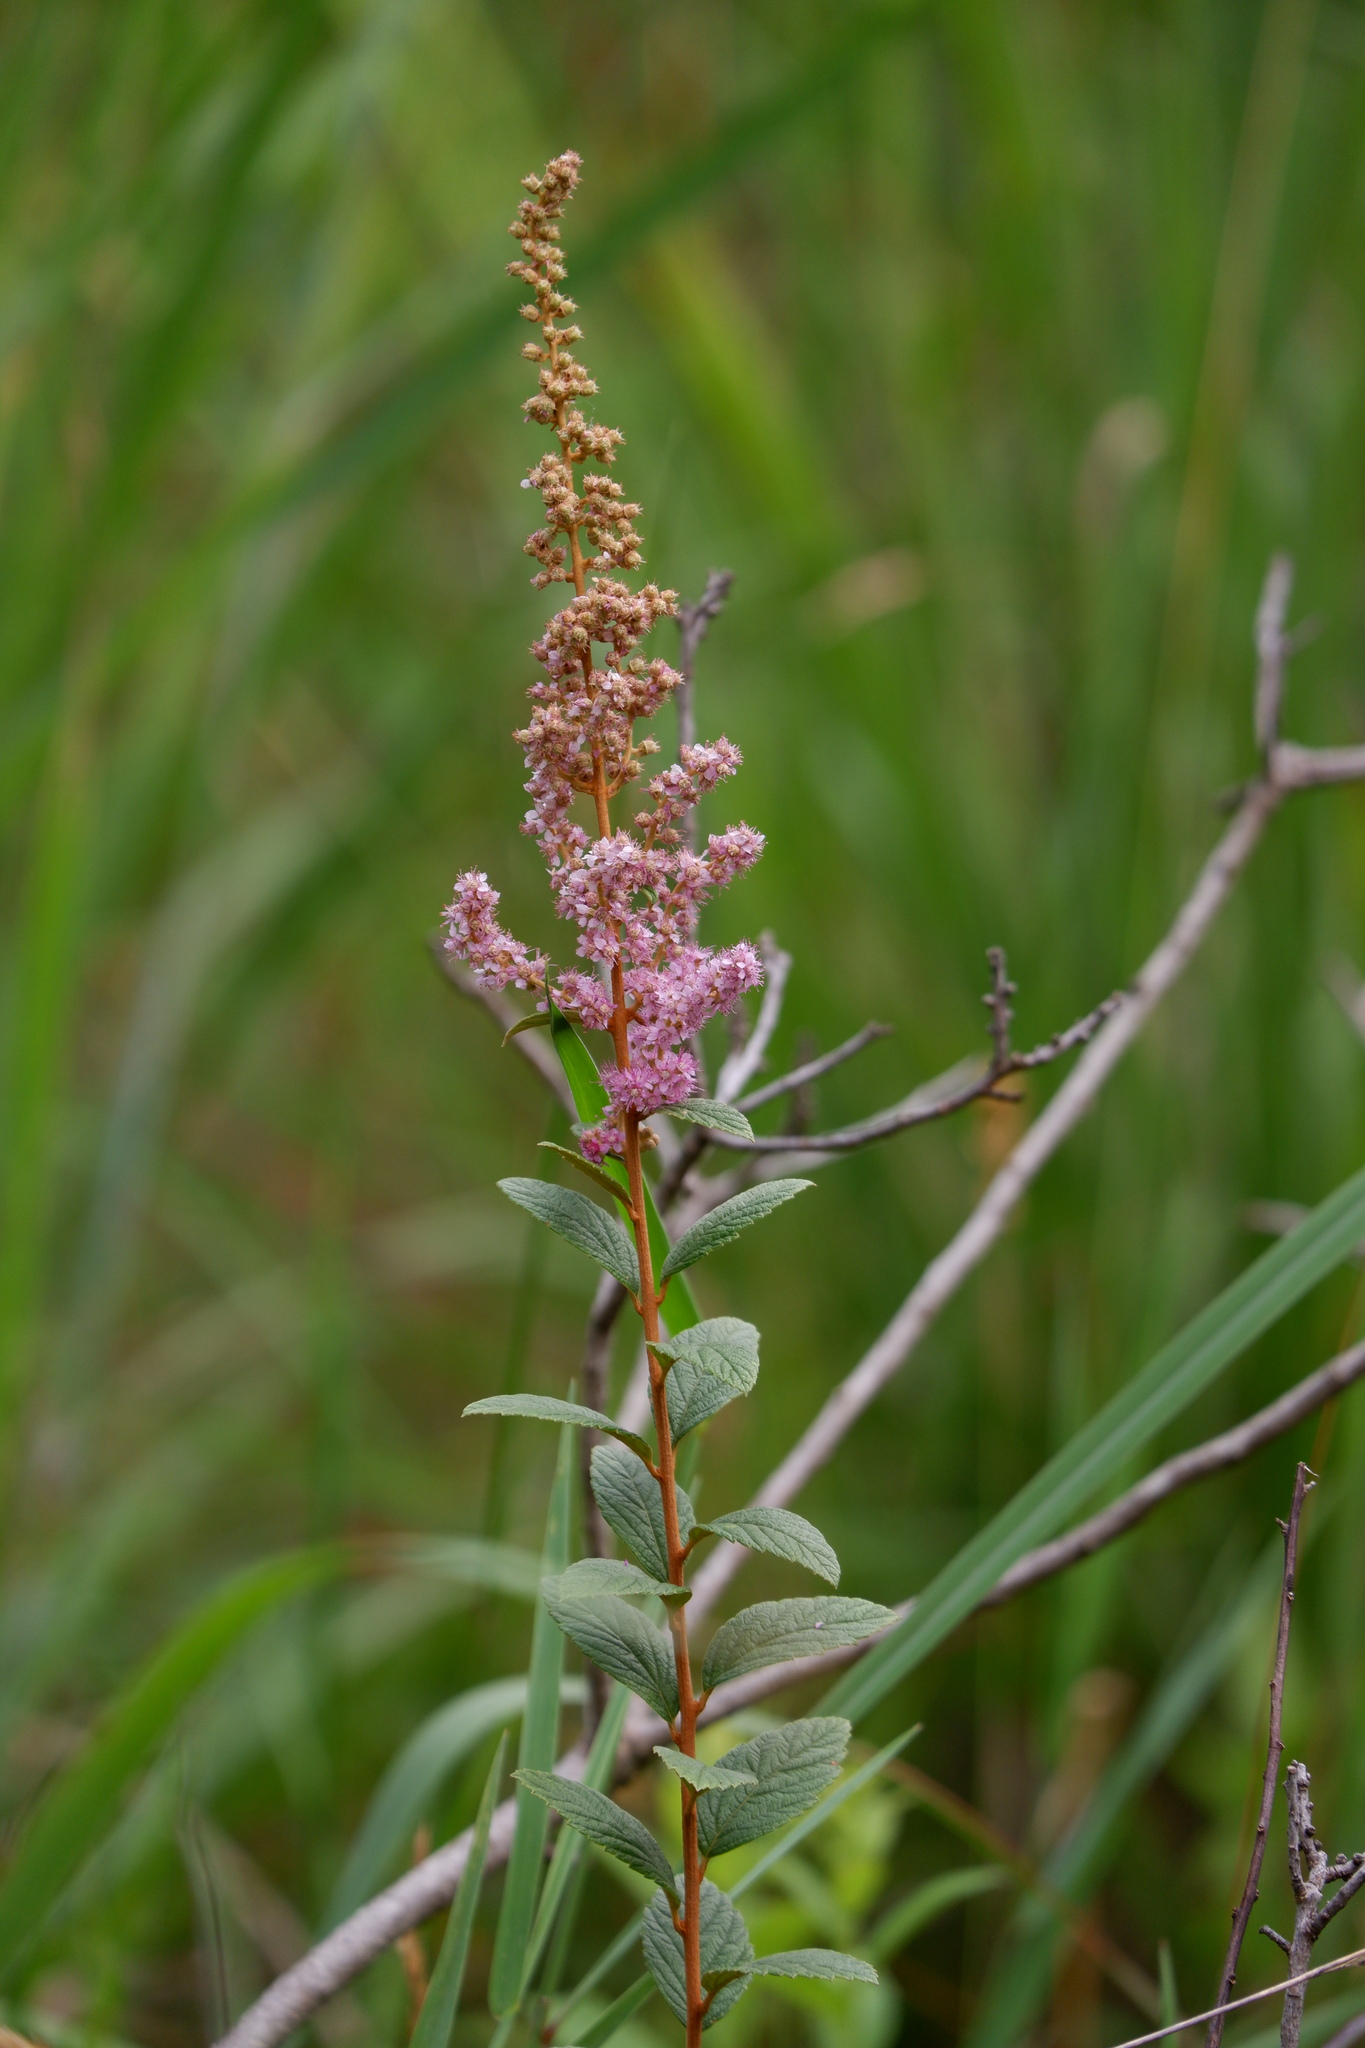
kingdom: Plantae
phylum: Tracheophyta
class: Magnoliopsida
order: Rosales
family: Rosaceae
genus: Spiraea
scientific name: Spiraea tomentosa
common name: Hardhack
